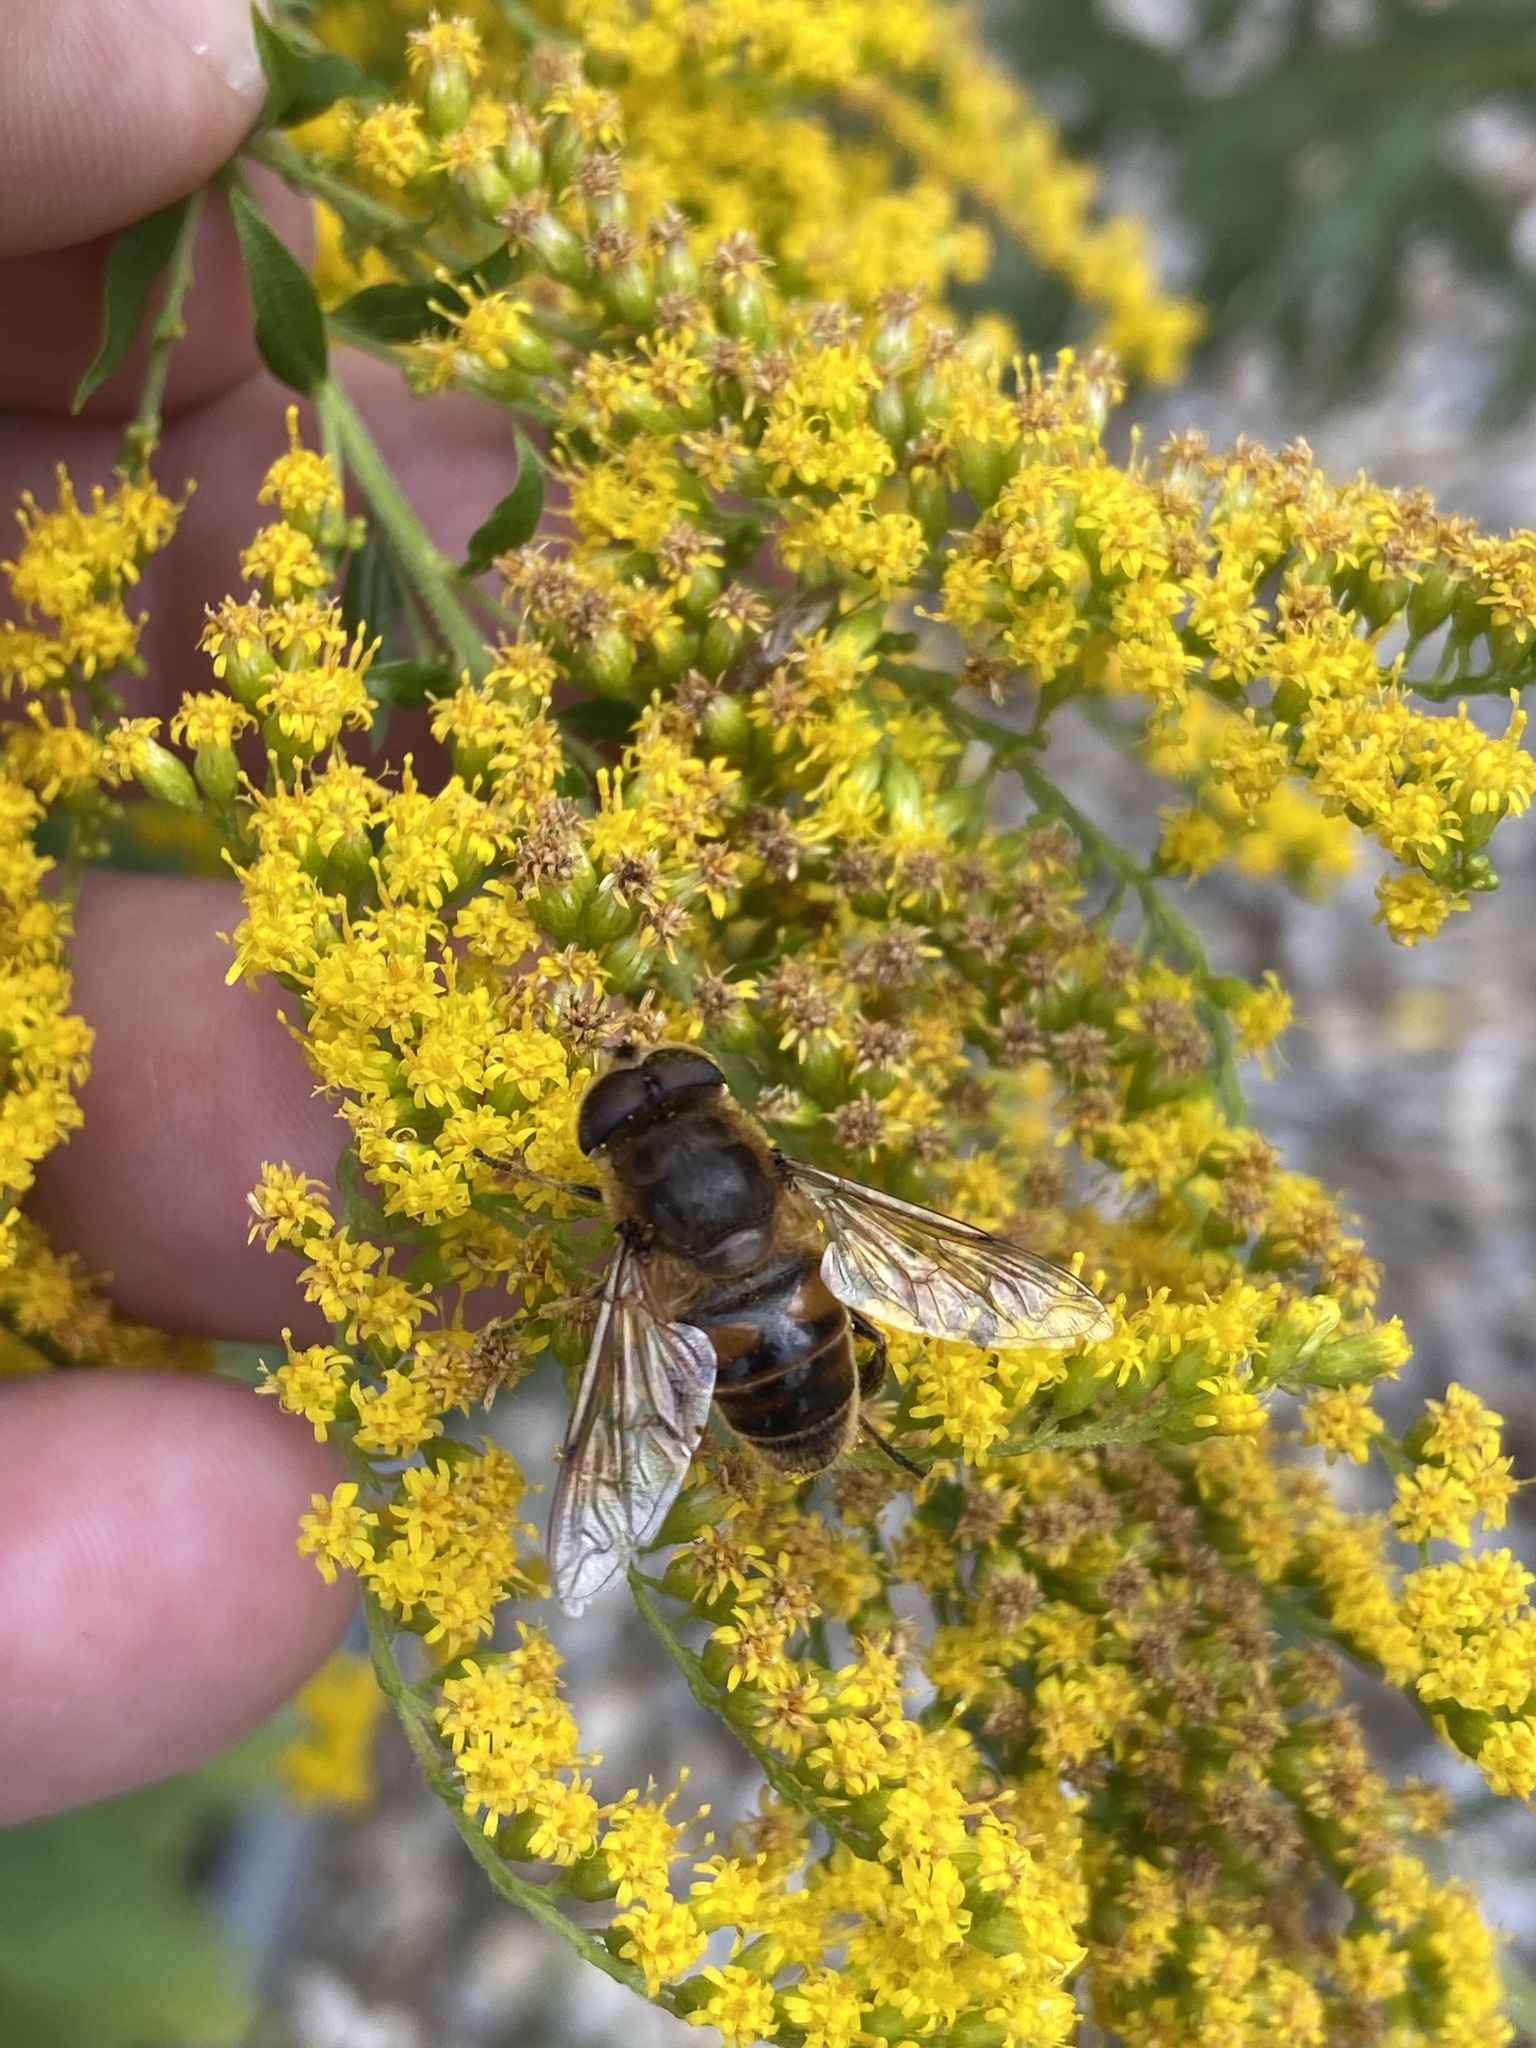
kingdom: Animalia
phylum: Arthropoda
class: Insecta
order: Diptera
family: Syrphidae
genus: Eristalis
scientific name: Eristalis tenax
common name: Drone fly
